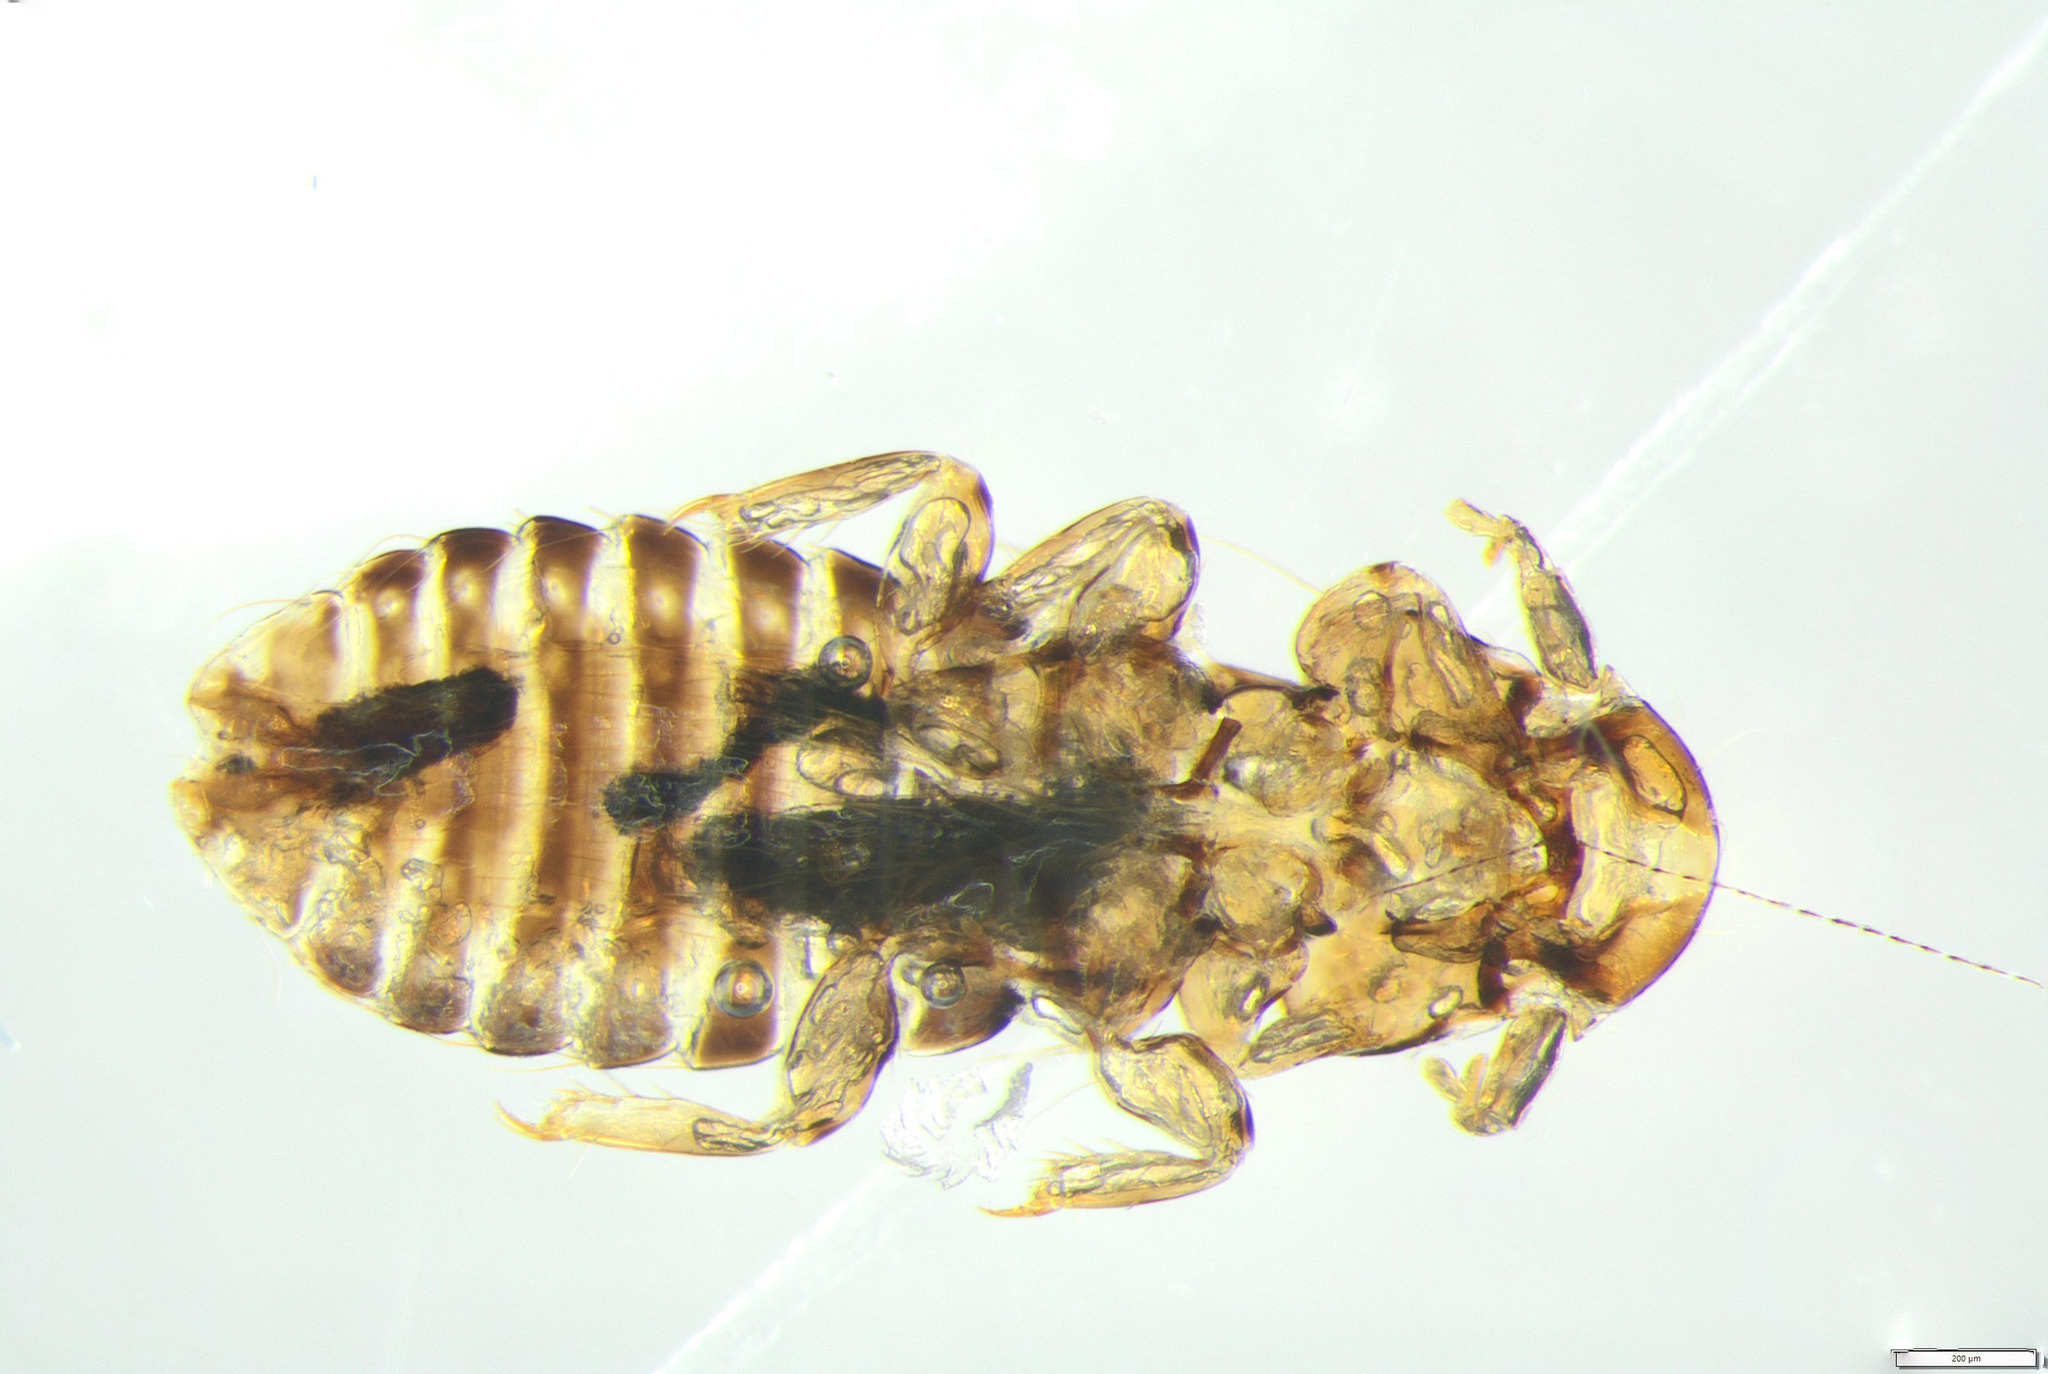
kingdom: Animalia
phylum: Arthropoda
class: Insecta
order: Psocodea
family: Philopteridae
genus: Rallicola
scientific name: Rallicola takahe
